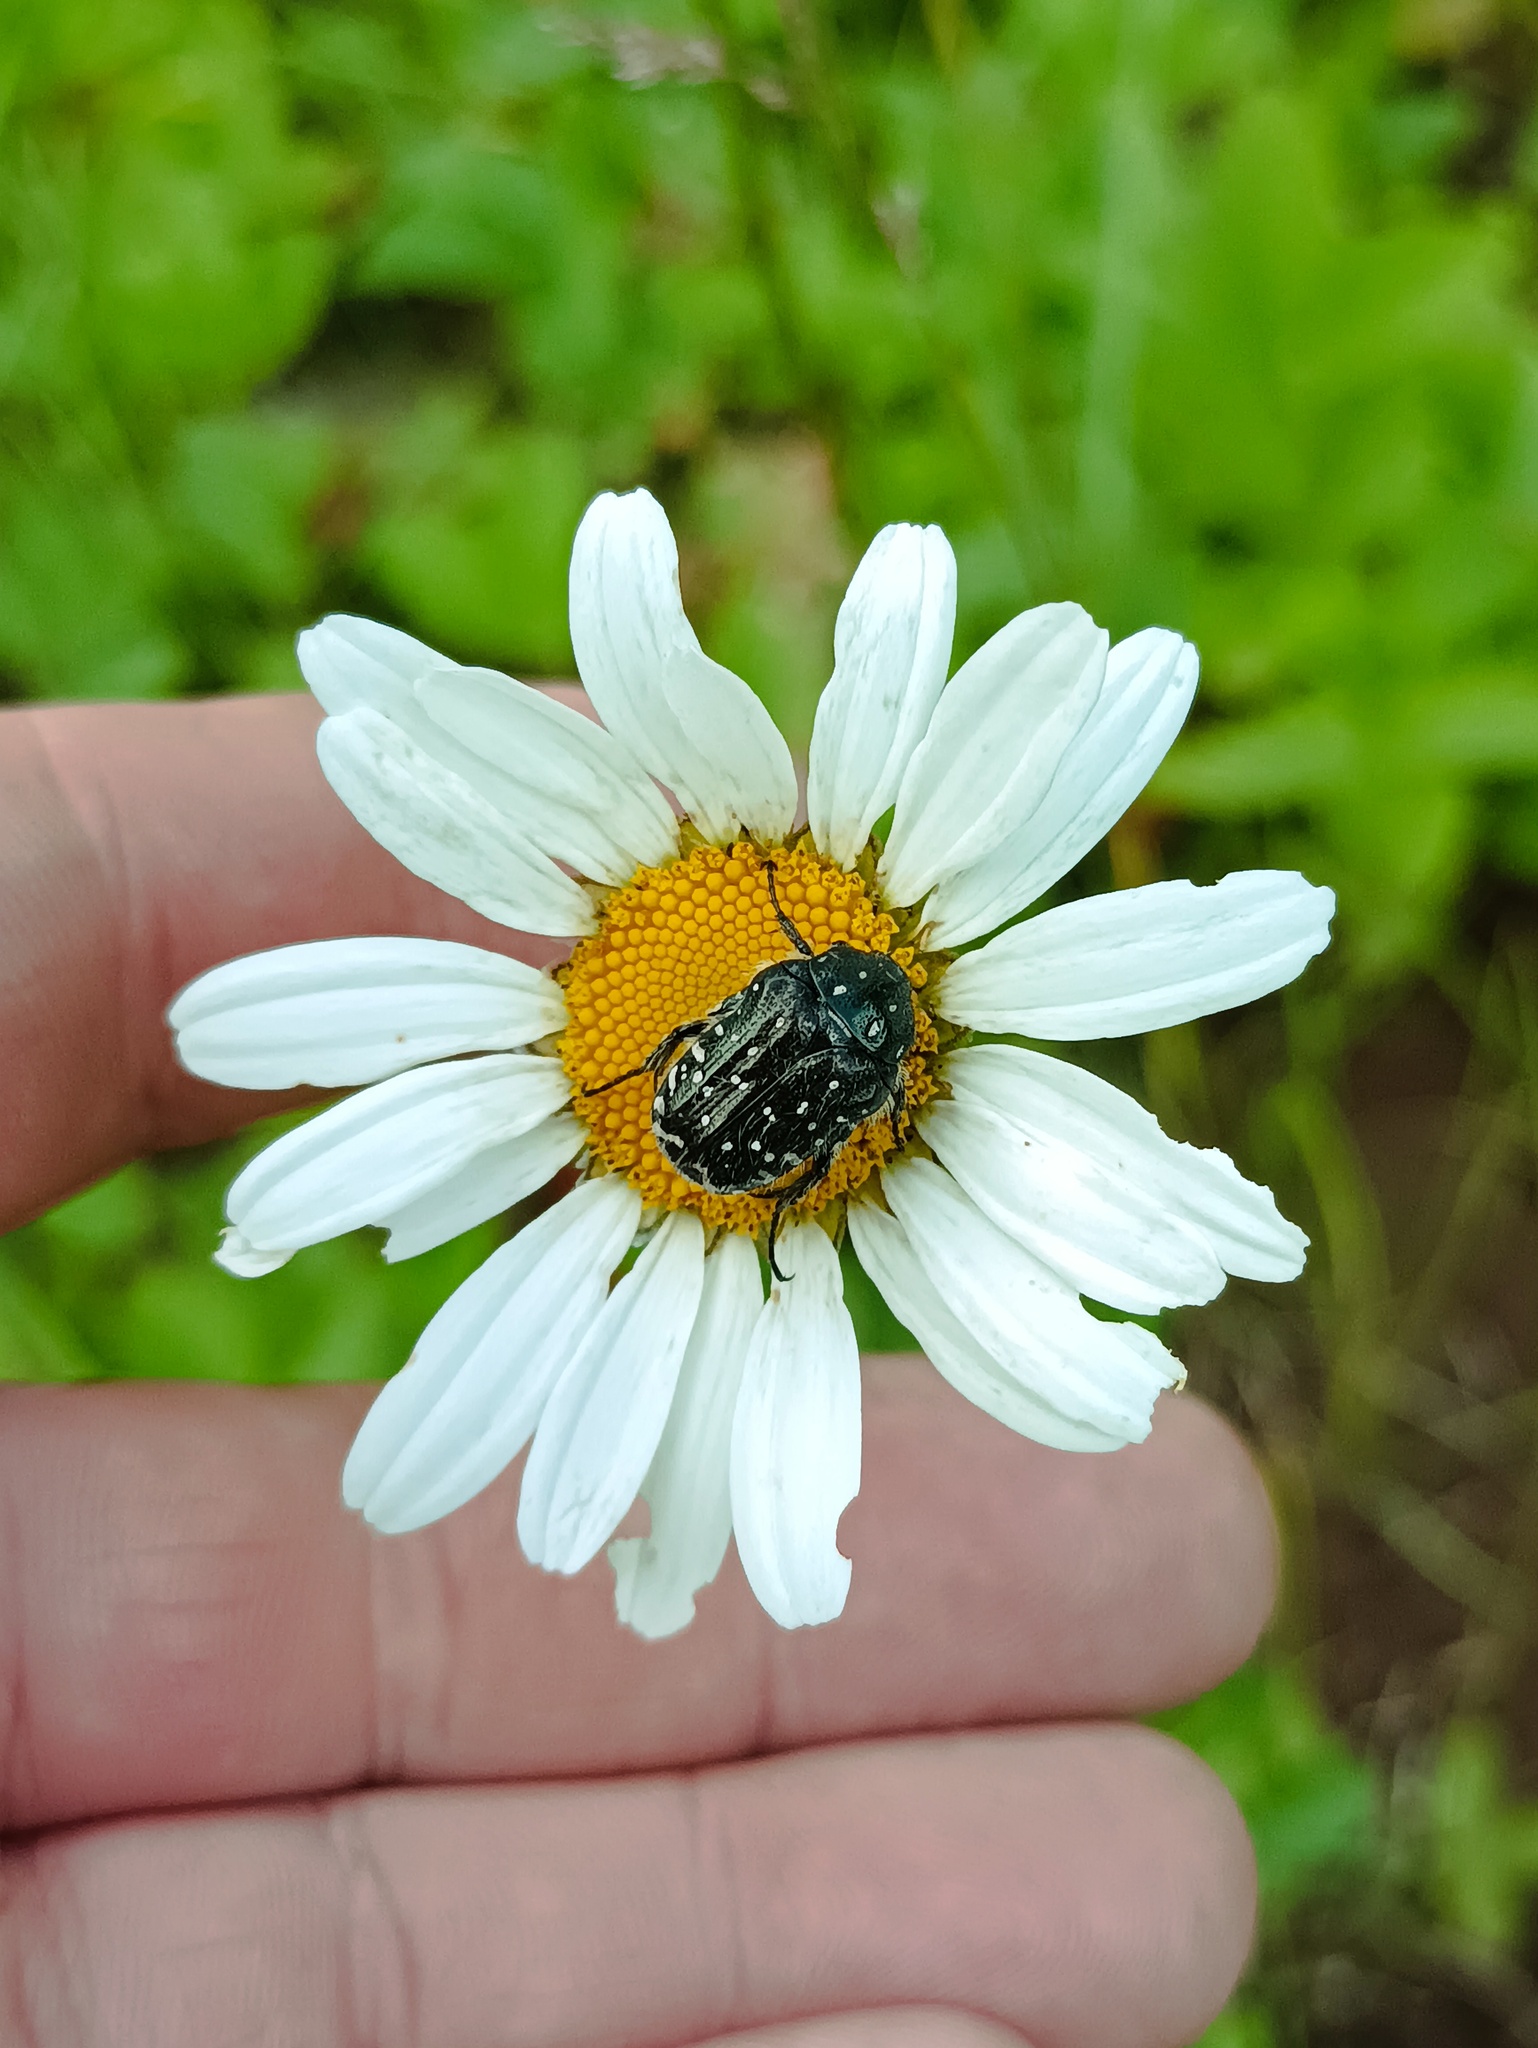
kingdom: Animalia
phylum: Arthropoda
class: Insecta
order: Coleoptera
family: Scarabaeidae
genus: Oxythyrea
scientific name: Oxythyrea funesta
